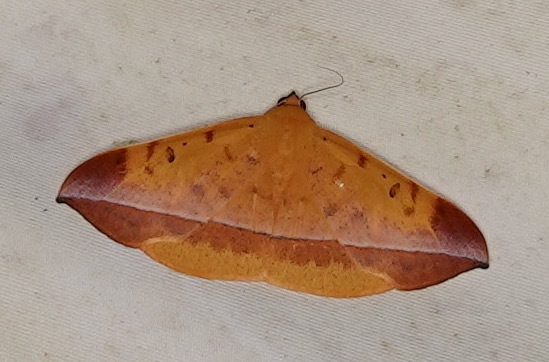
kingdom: Animalia
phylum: Arthropoda
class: Insecta
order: Lepidoptera
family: Erebidae
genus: Hamodes
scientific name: Hamodes lutea
